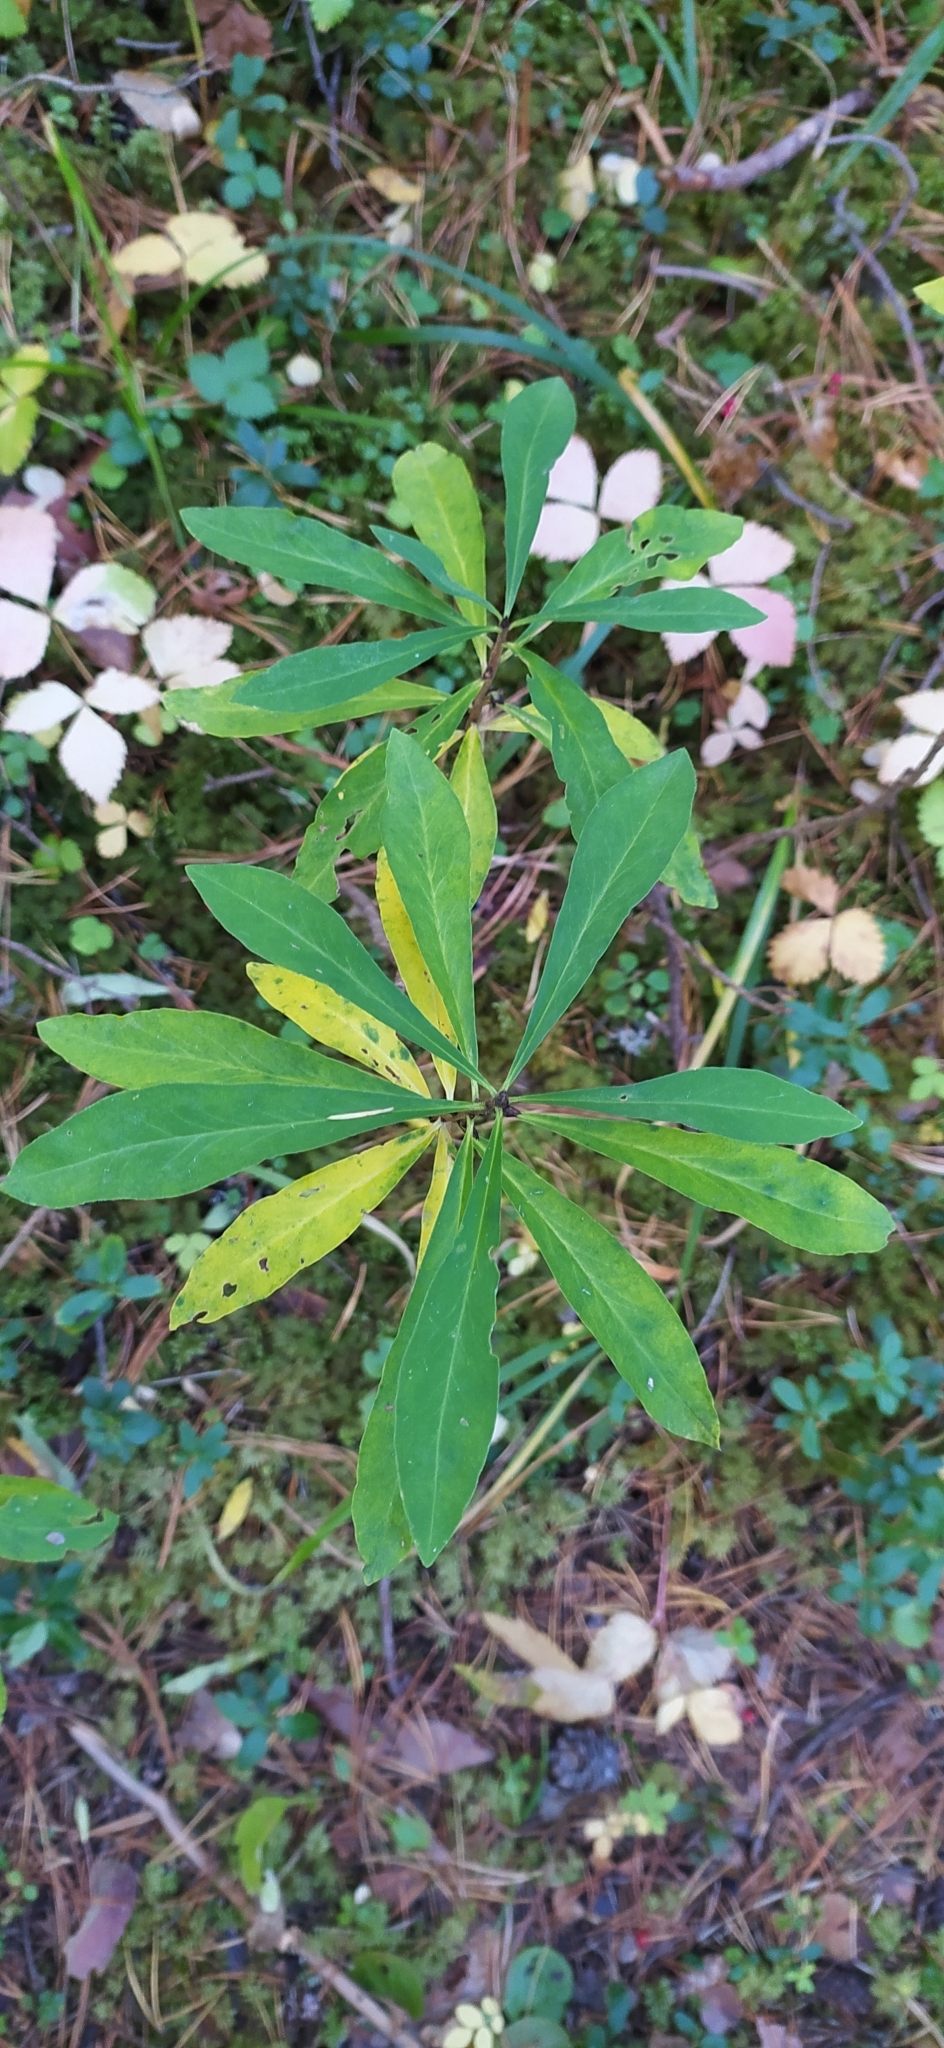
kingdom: Plantae
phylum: Tracheophyta
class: Magnoliopsida
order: Malvales
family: Thymelaeaceae
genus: Daphne
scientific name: Daphne mezereum
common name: Mezereon
